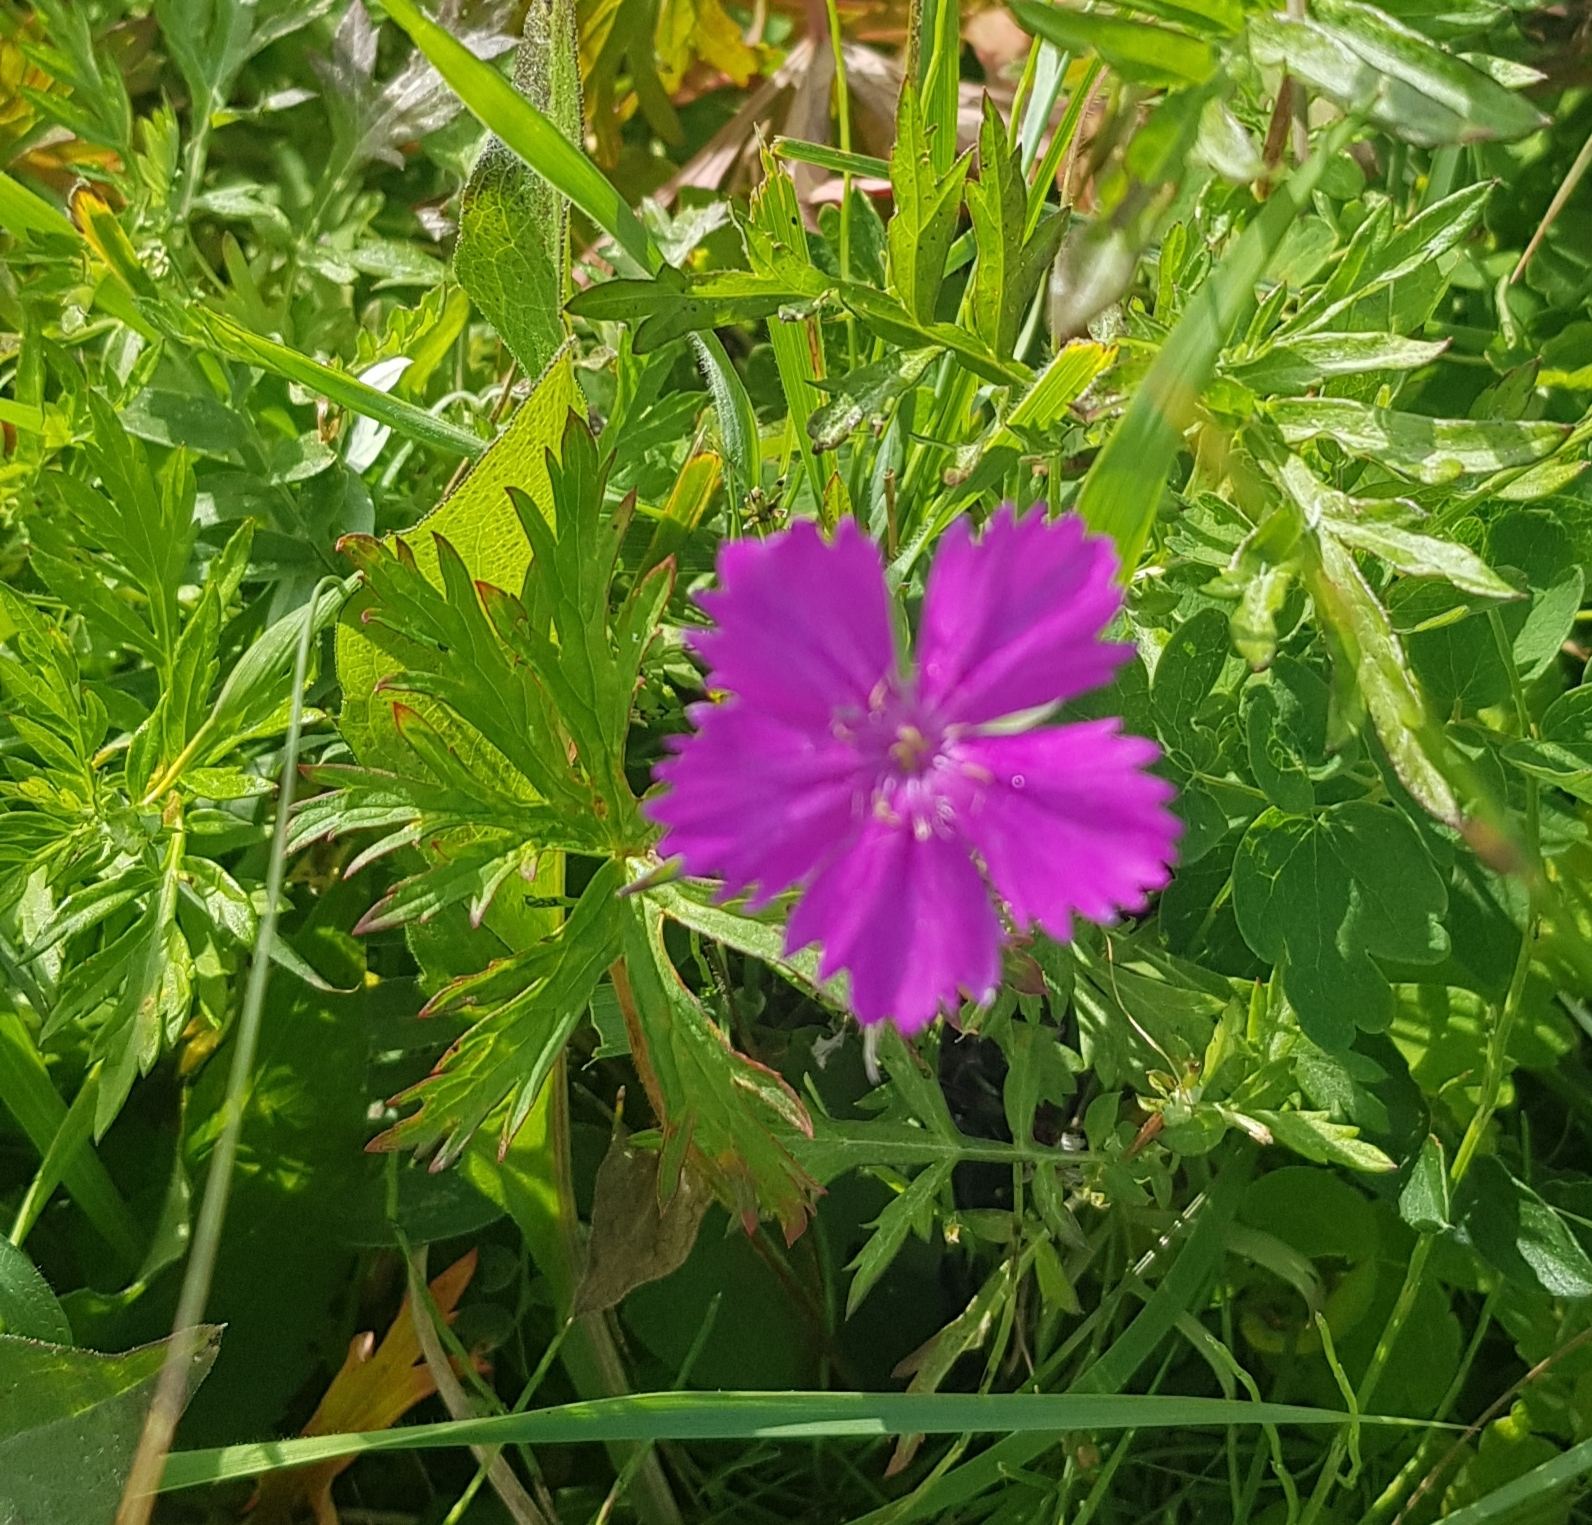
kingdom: Plantae
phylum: Tracheophyta
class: Magnoliopsida
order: Caryophyllales
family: Caryophyllaceae
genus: Dianthus
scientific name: Dianthus chinensis
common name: Rainbow pink
